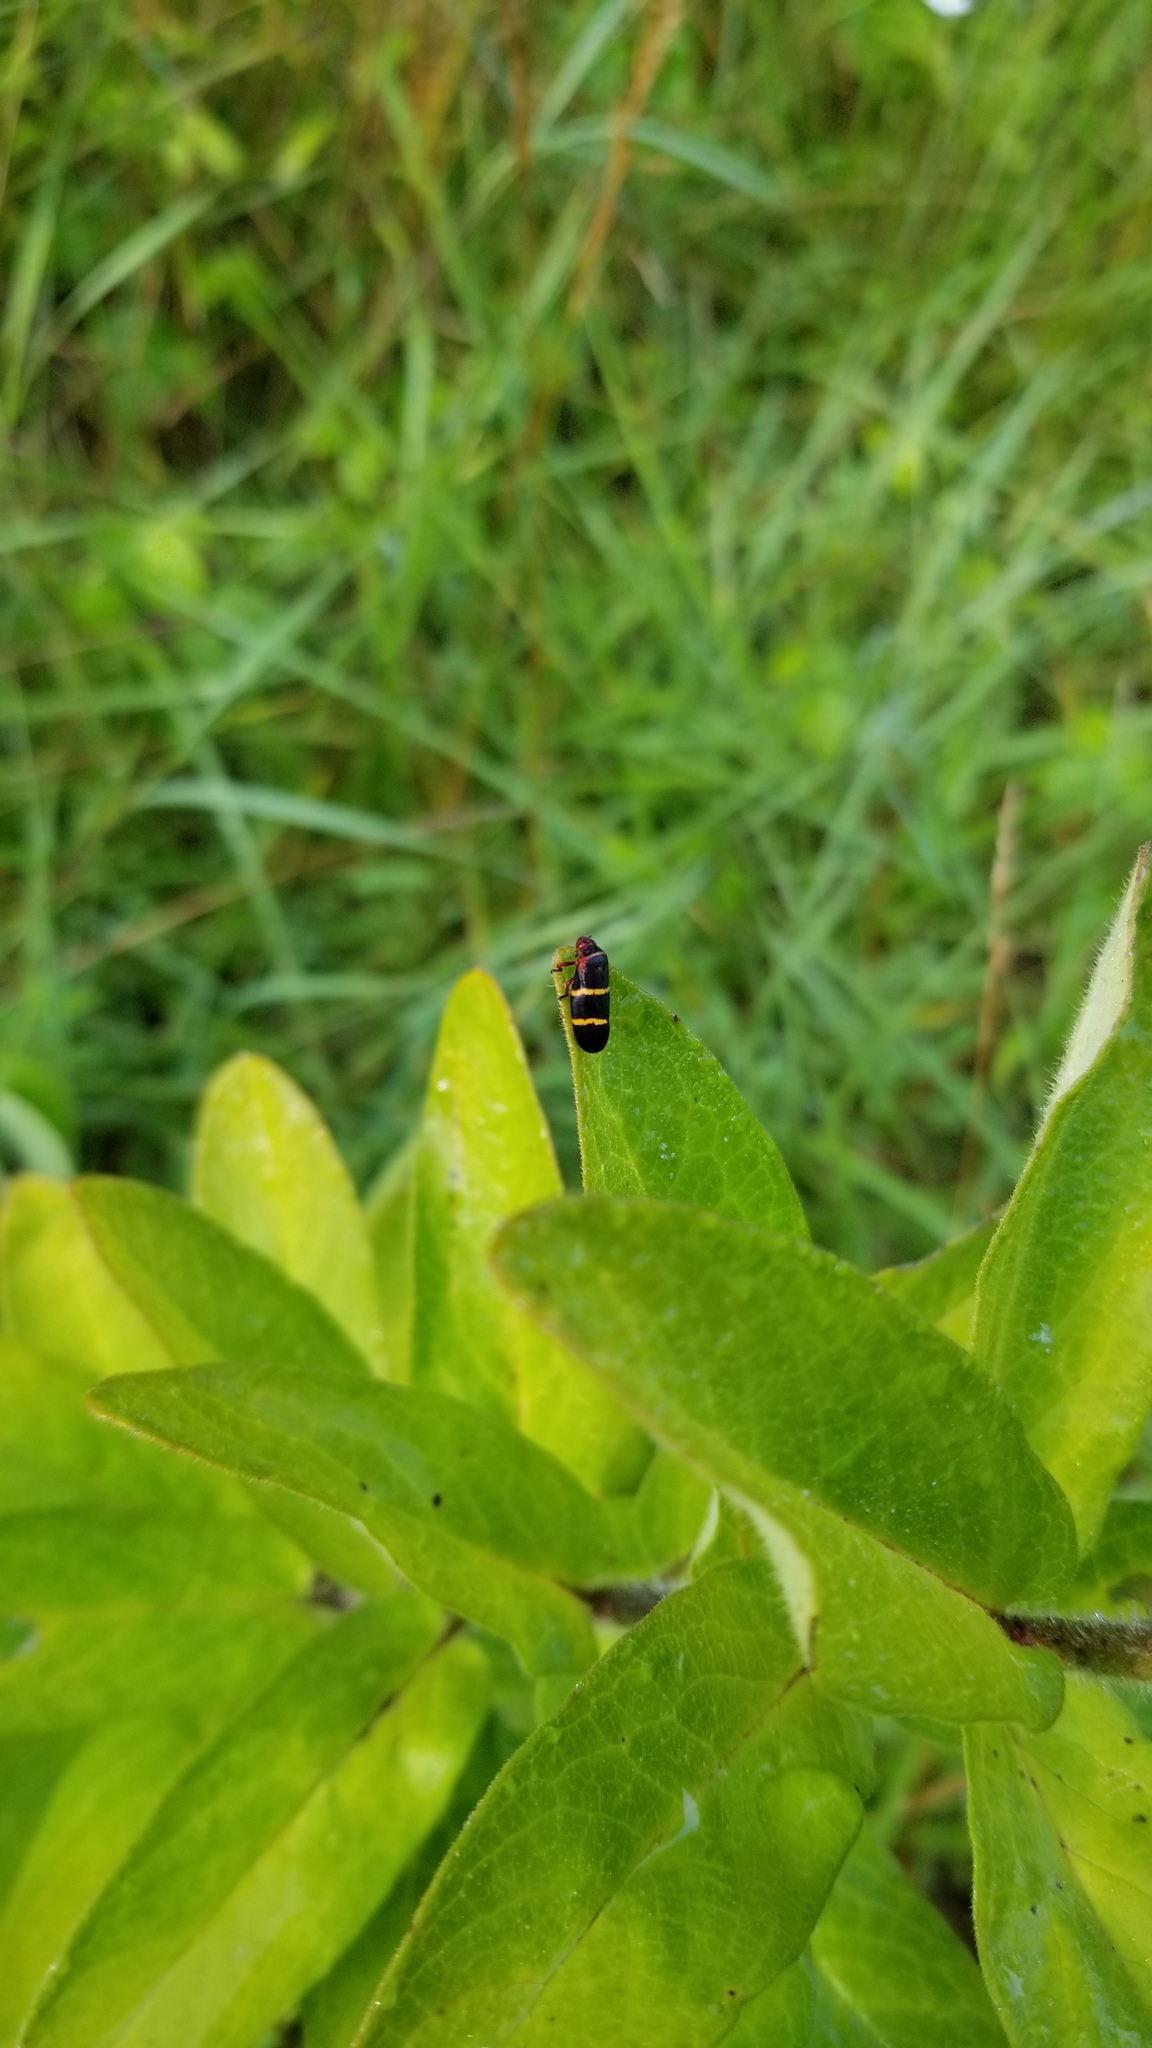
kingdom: Animalia
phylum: Arthropoda
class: Insecta
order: Hemiptera
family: Cercopidae
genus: Prosapia
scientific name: Prosapia bicincta
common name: Twolined spittlebug
